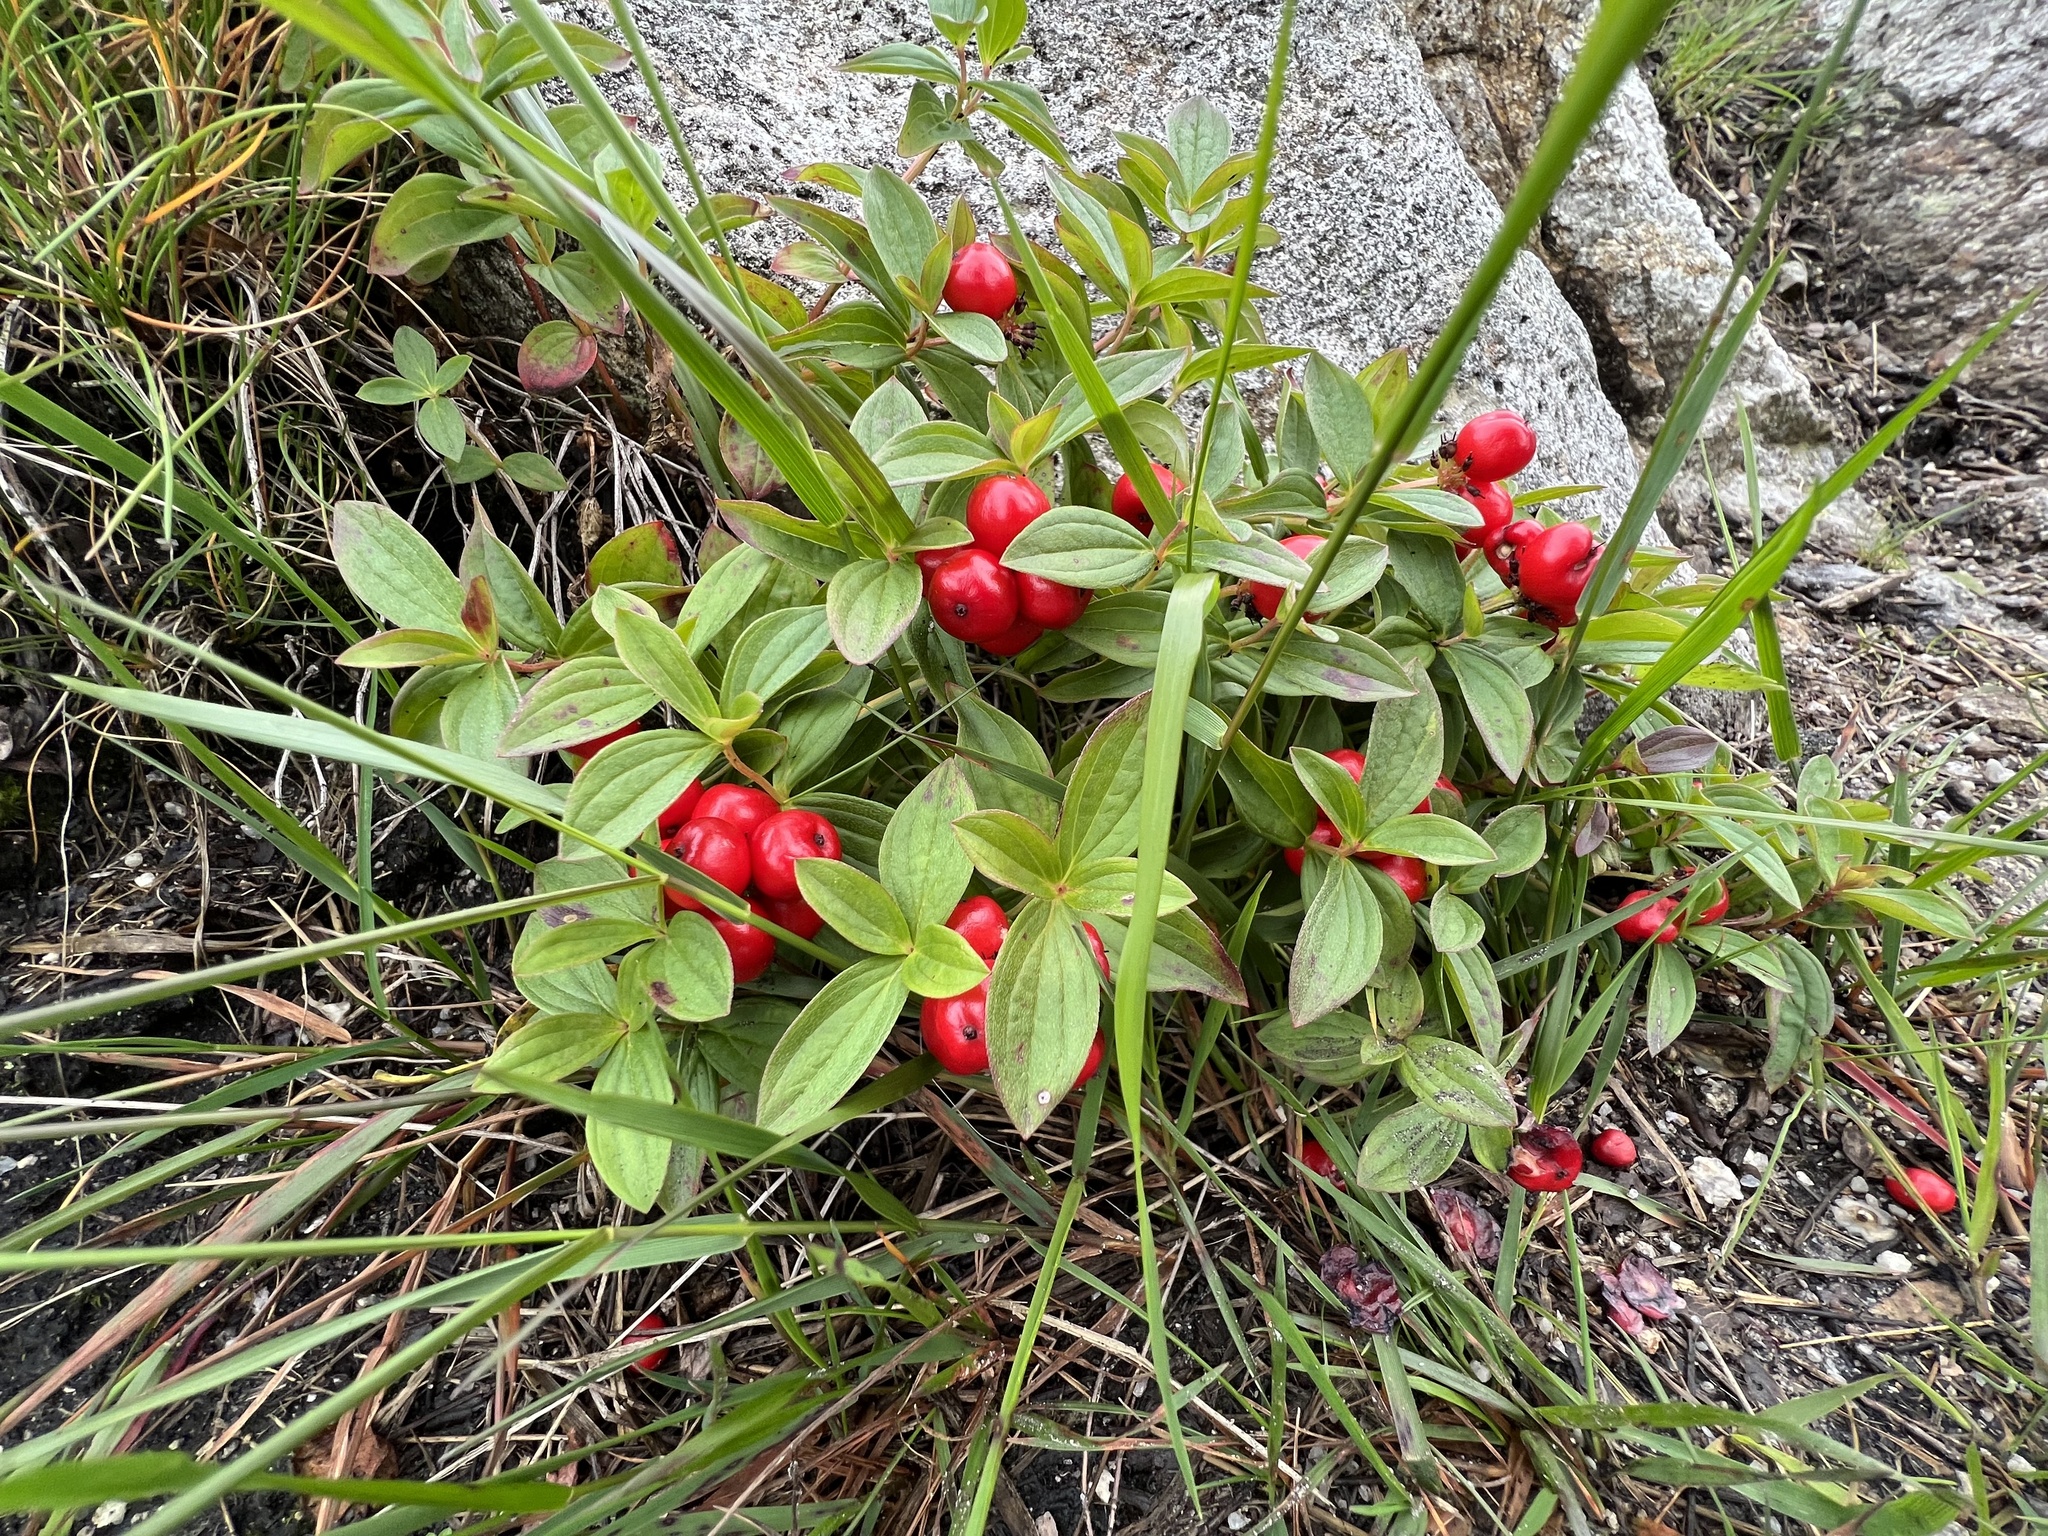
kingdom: Plantae
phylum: Tracheophyta
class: Magnoliopsida
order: Cornales
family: Cornaceae
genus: Cornus
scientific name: Cornus suecica
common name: Dwarf cornel
